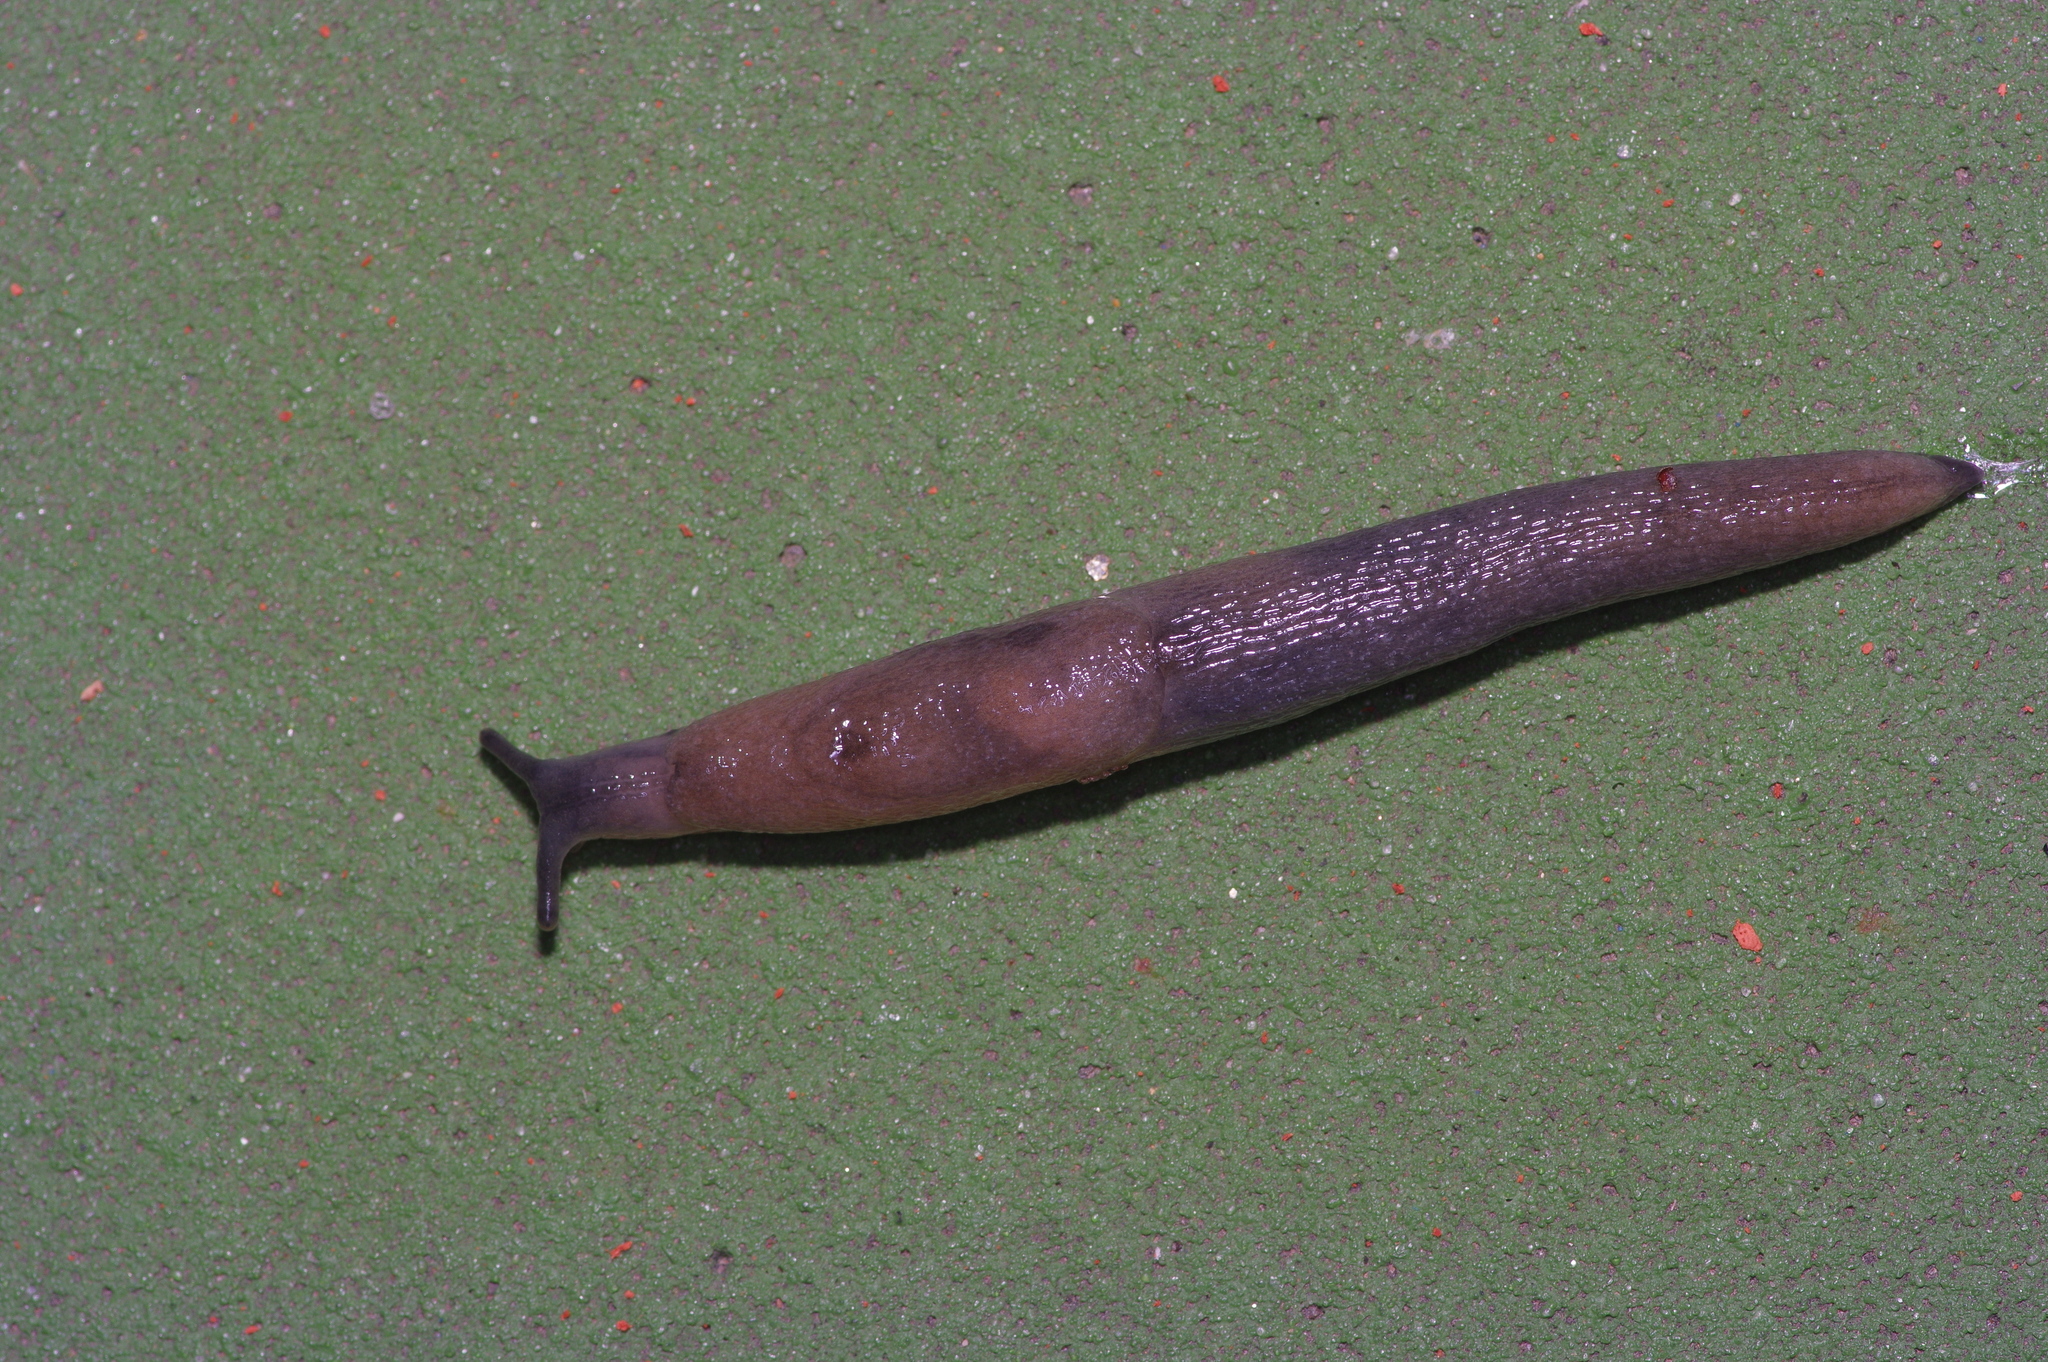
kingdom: Animalia
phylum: Mollusca
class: Gastropoda
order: Stylommatophora
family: Milacidae
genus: Milax
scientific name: Milax gagates
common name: Greenhouse slug
